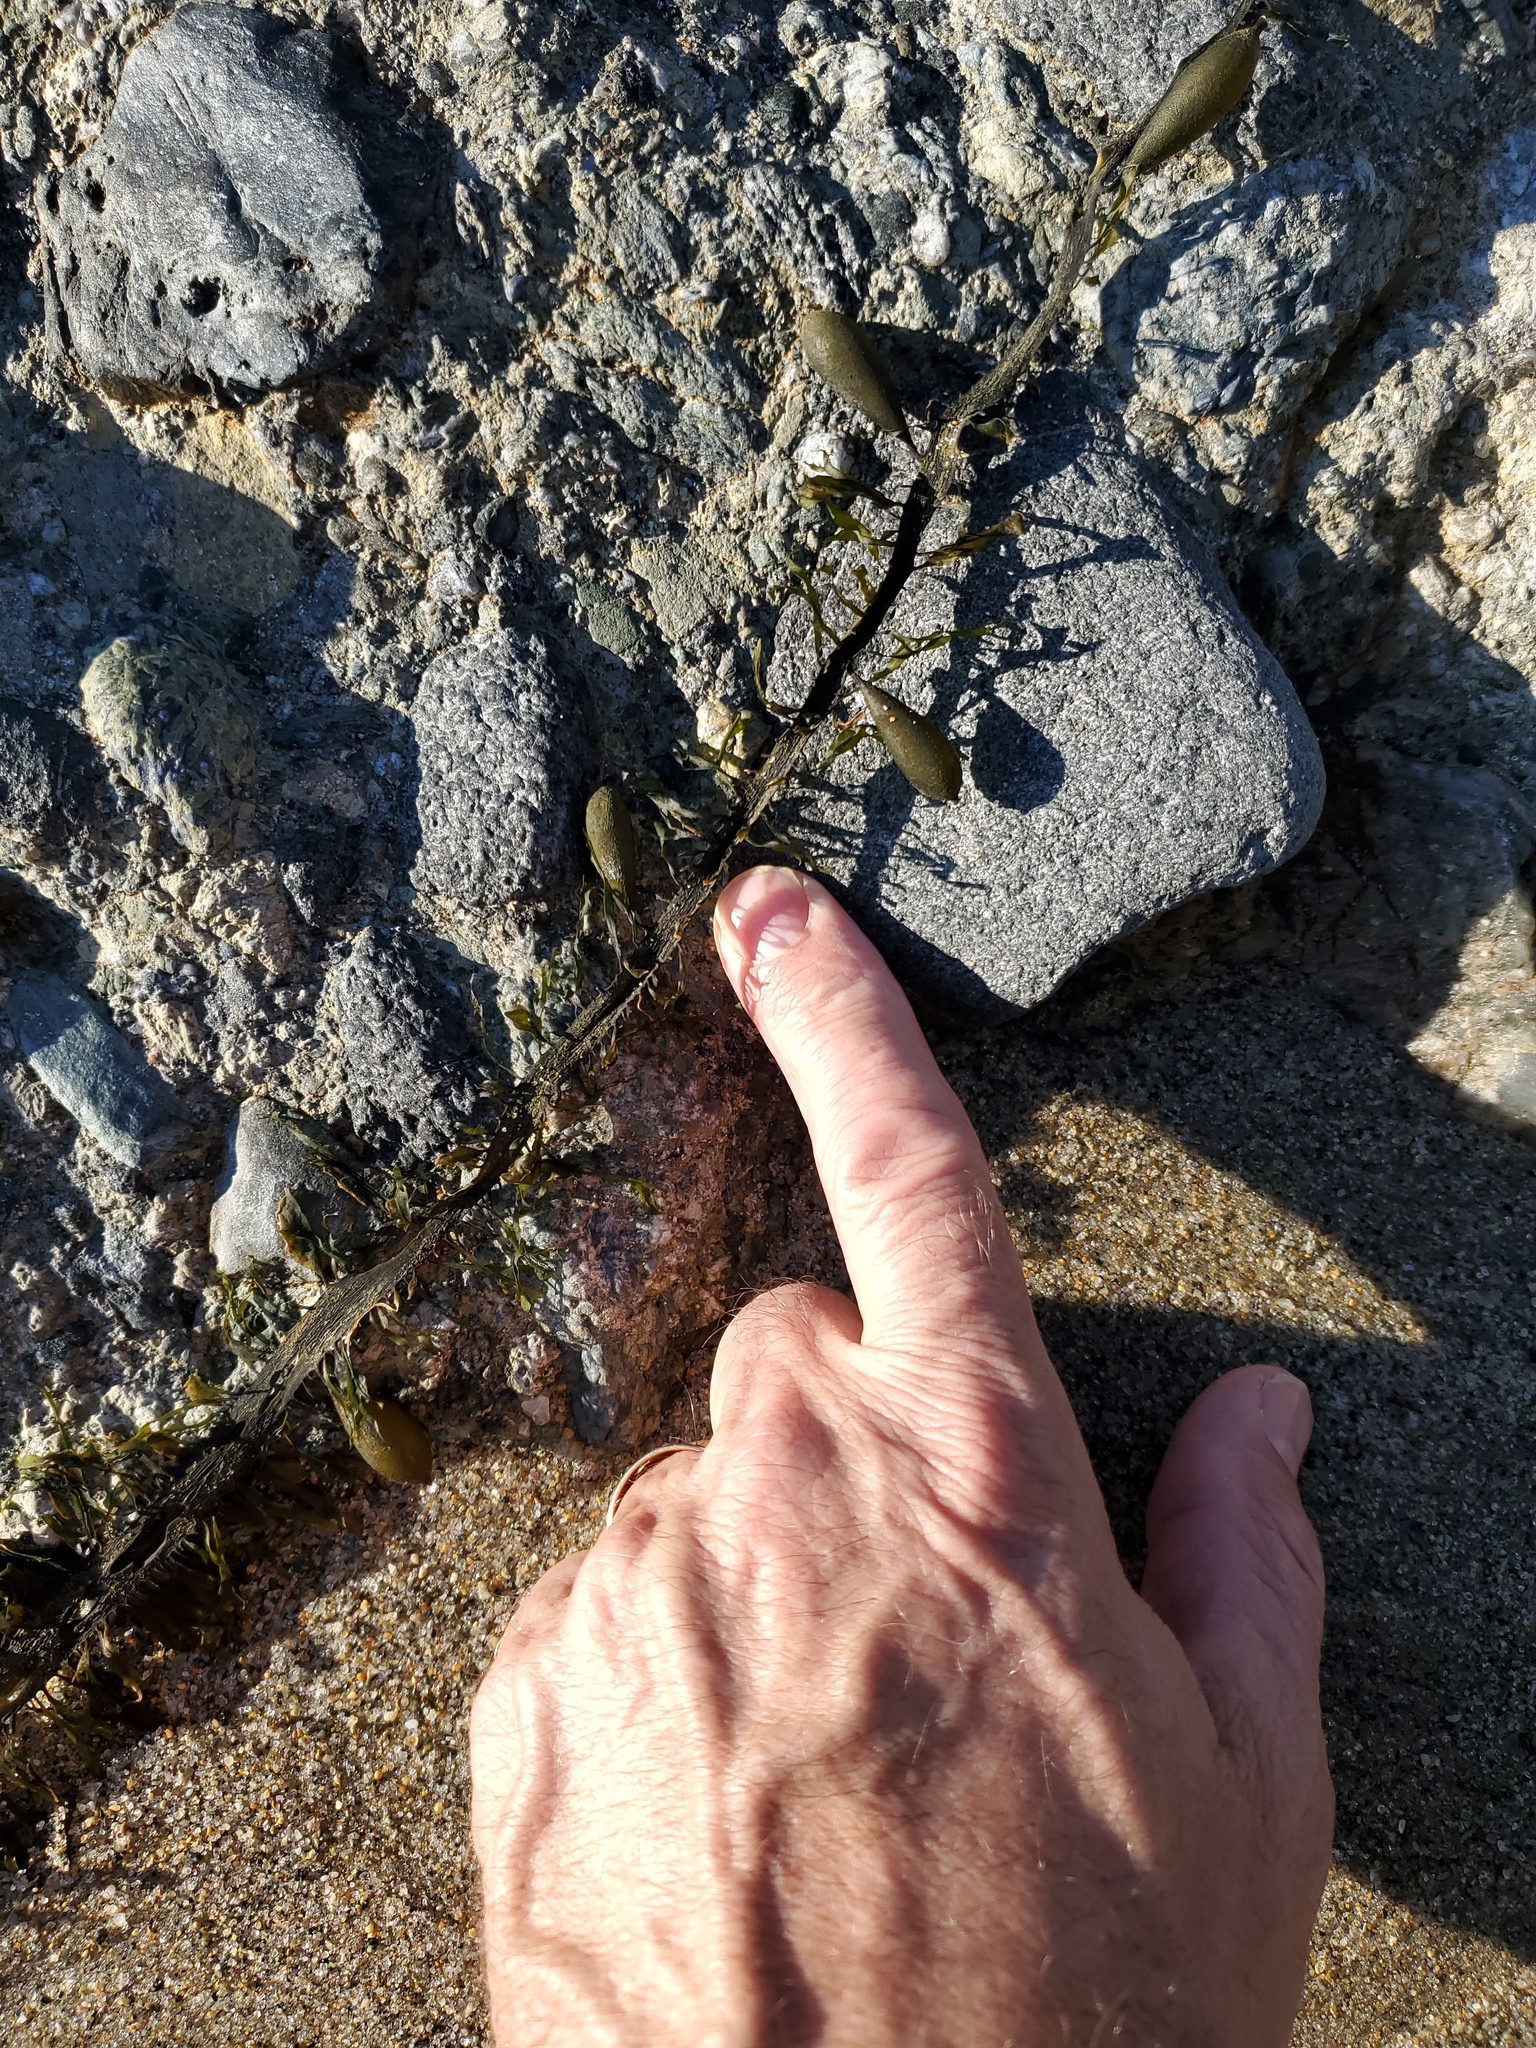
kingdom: Chromista
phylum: Ochrophyta
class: Phaeophyceae
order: Laminariales
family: Lessoniaceae
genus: Egregia
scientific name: Egregia menziesii
